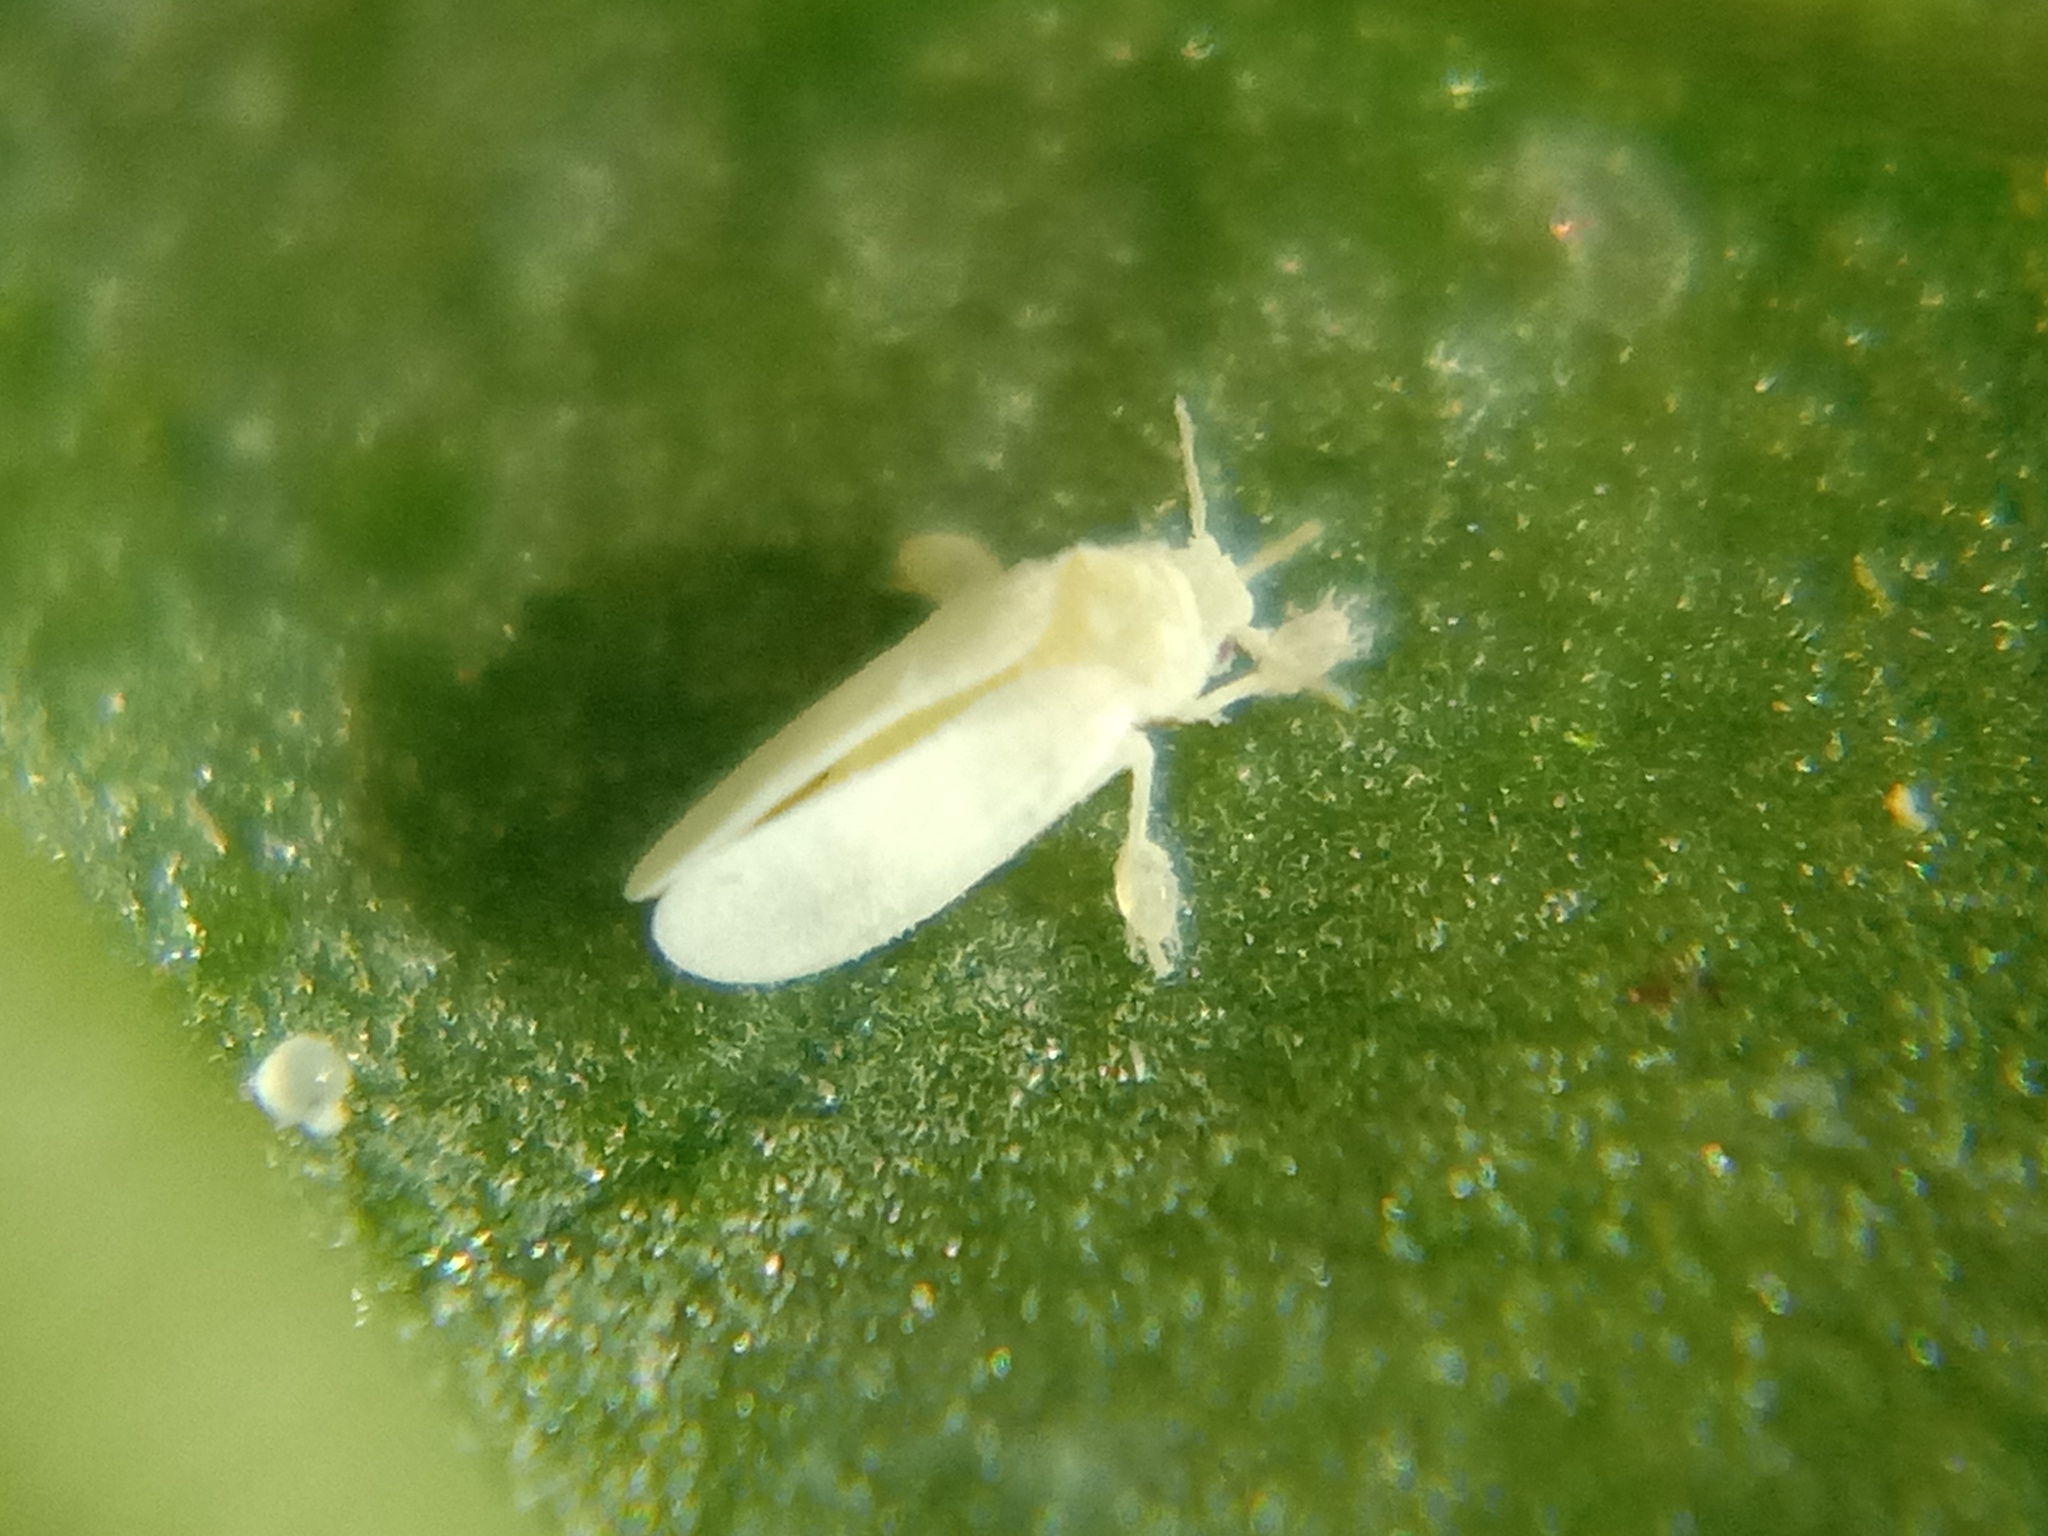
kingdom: Animalia
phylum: Arthropoda
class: Insecta
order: Hemiptera
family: Aleyrodidae
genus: Bemisia
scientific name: Bemisia tabaci
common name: Sweetpotato whitefly
